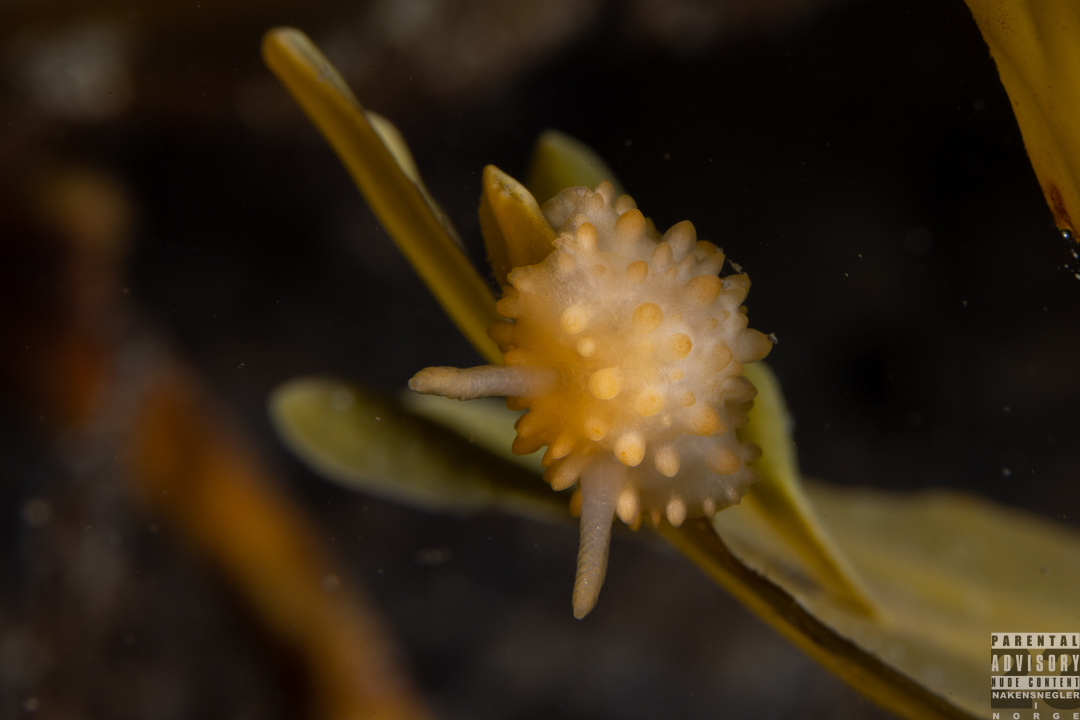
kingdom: Animalia
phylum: Mollusca
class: Gastropoda
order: Nudibranchia
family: Onchidorididae
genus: Adalaria
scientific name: Adalaria proxima
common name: False doris
